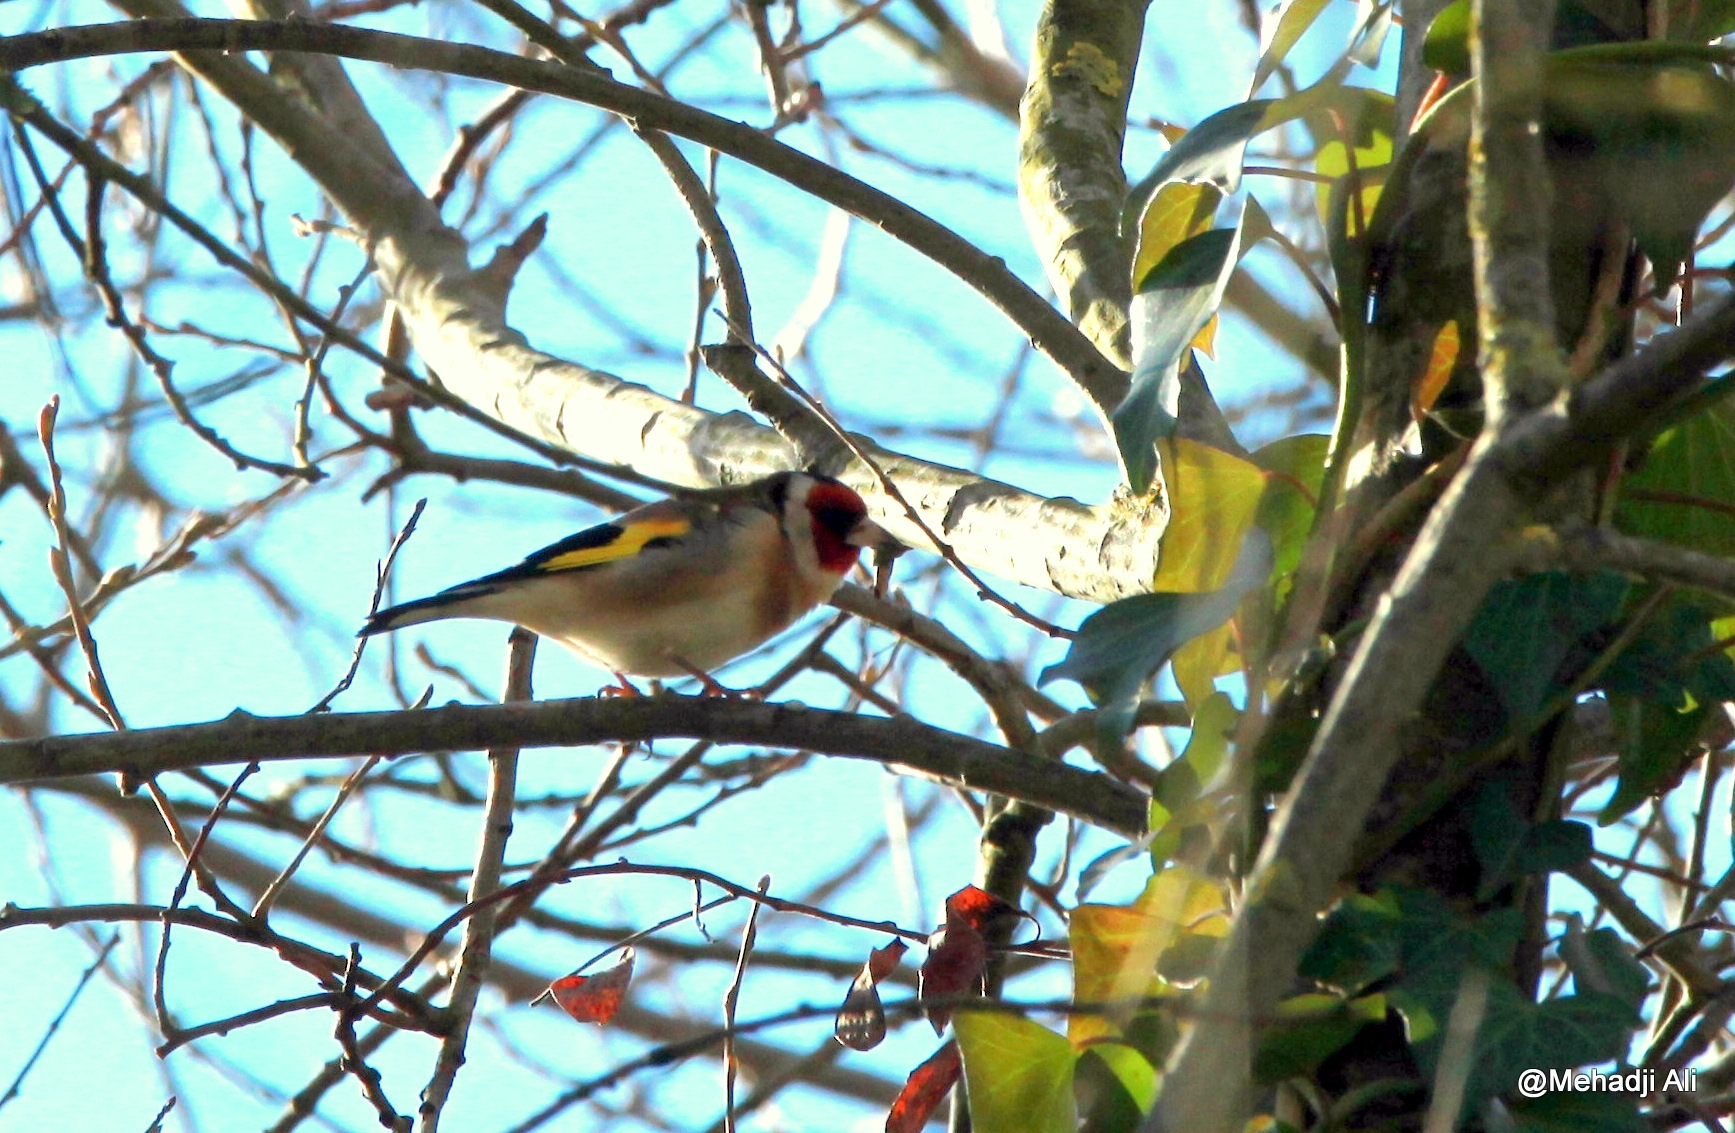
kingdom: Animalia
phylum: Chordata
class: Aves
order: Passeriformes
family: Fringillidae
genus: Carduelis
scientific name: Carduelis carduelis
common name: European goldfinch
